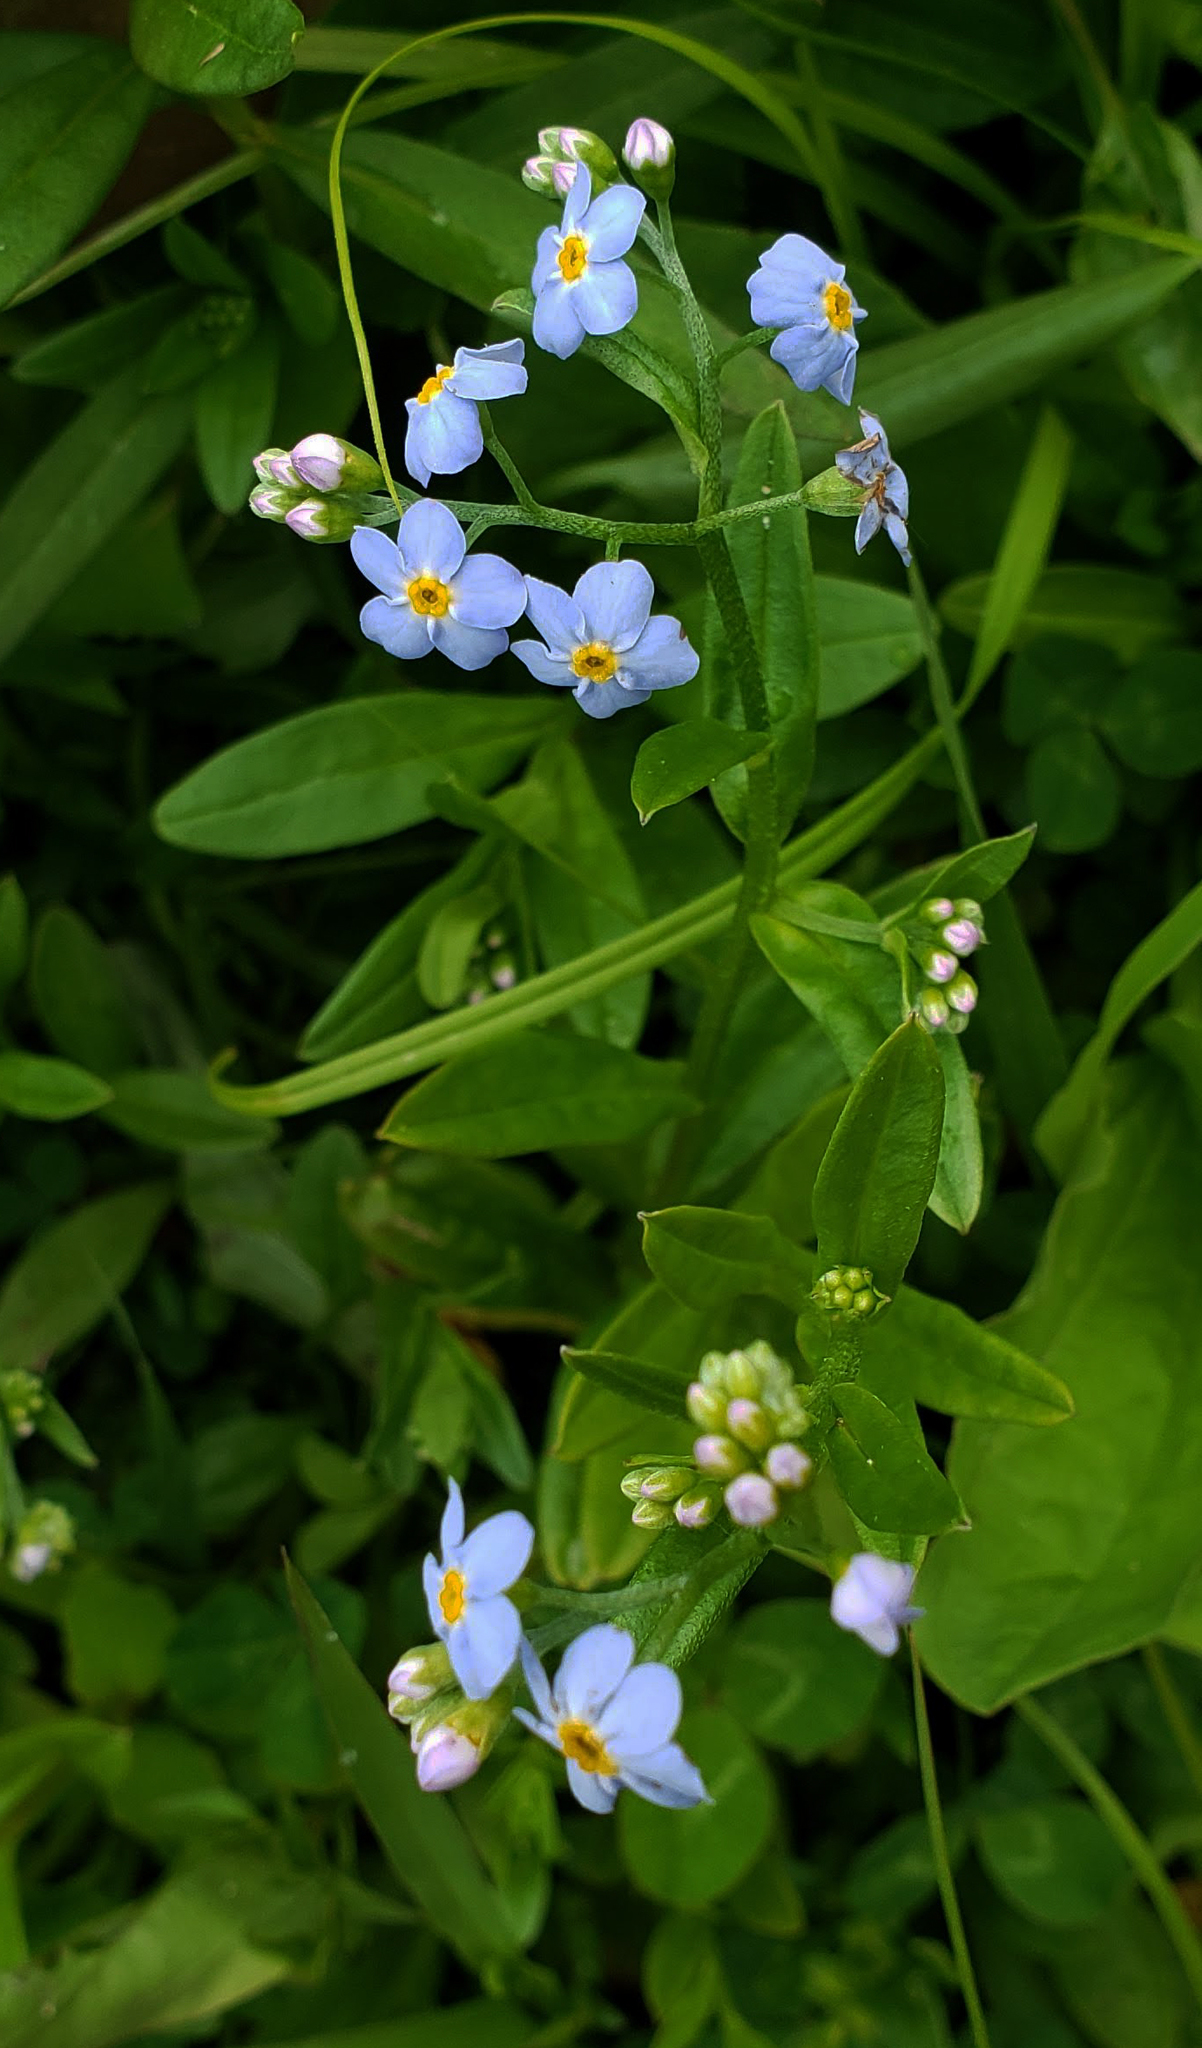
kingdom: Plantae
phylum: Tracheophyta
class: Magnoliopsida
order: Boraginales
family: Boraginaceae
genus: Myosotis
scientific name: Myosotis scorpioides
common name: Water forget-me-not
